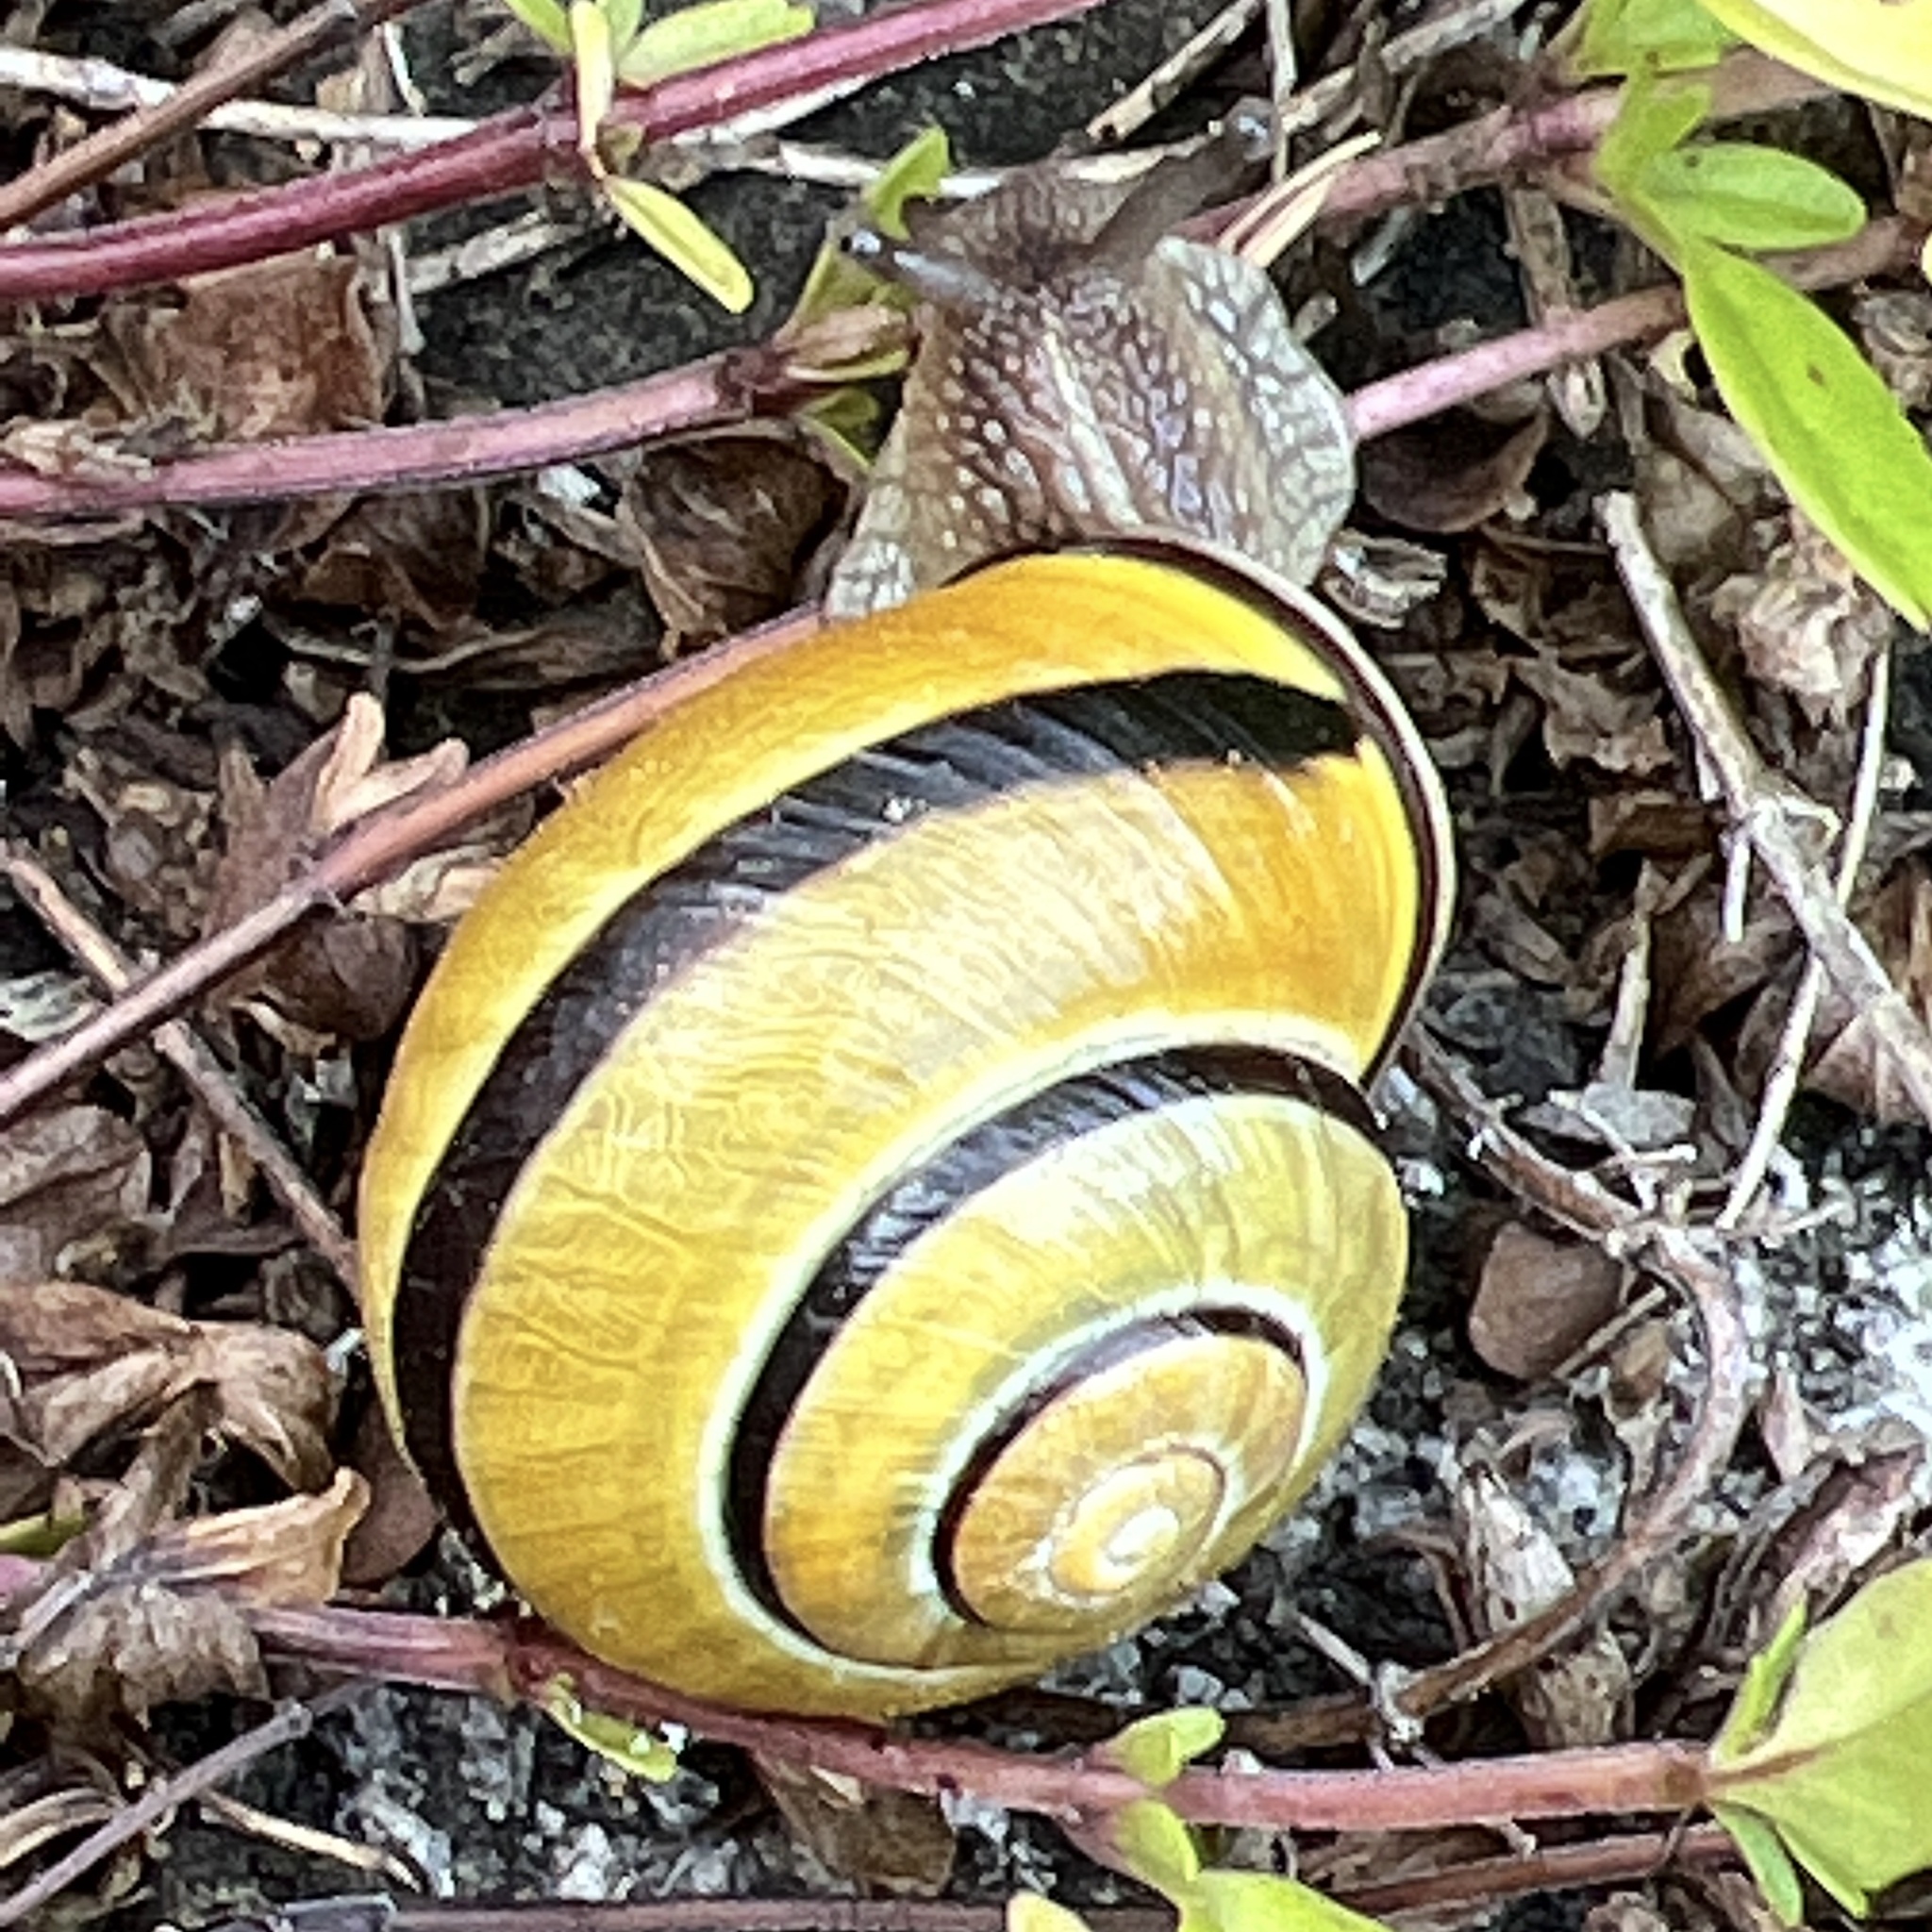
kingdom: Animalia
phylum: Mollusca
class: Gastropoda
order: Stylommatophora
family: Helicidae
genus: Cepaea
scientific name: Cepaea nemoralis
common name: Grovesnail
